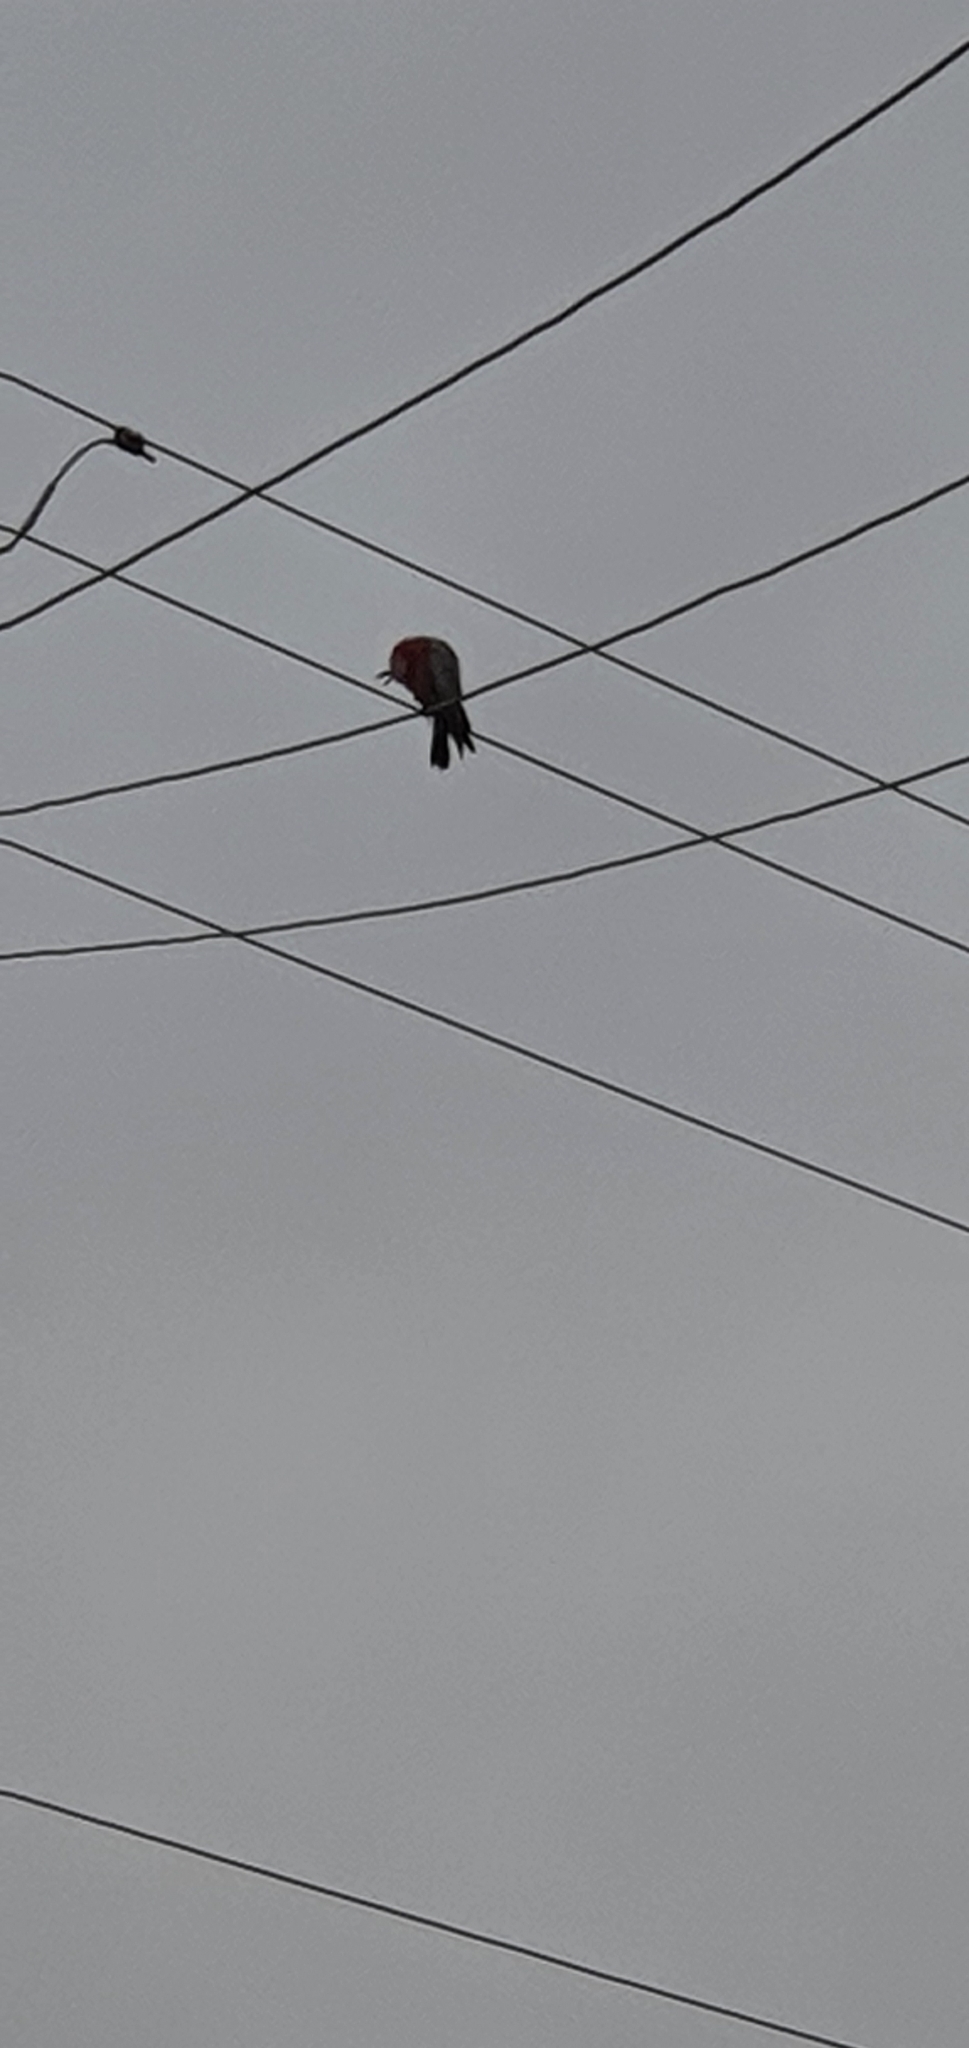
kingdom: Animalia
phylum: Chordata
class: Aves
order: Psittaciformes
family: Psittacidae
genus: Eolophus
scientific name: Eolophus roseicapilla
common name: Galah
